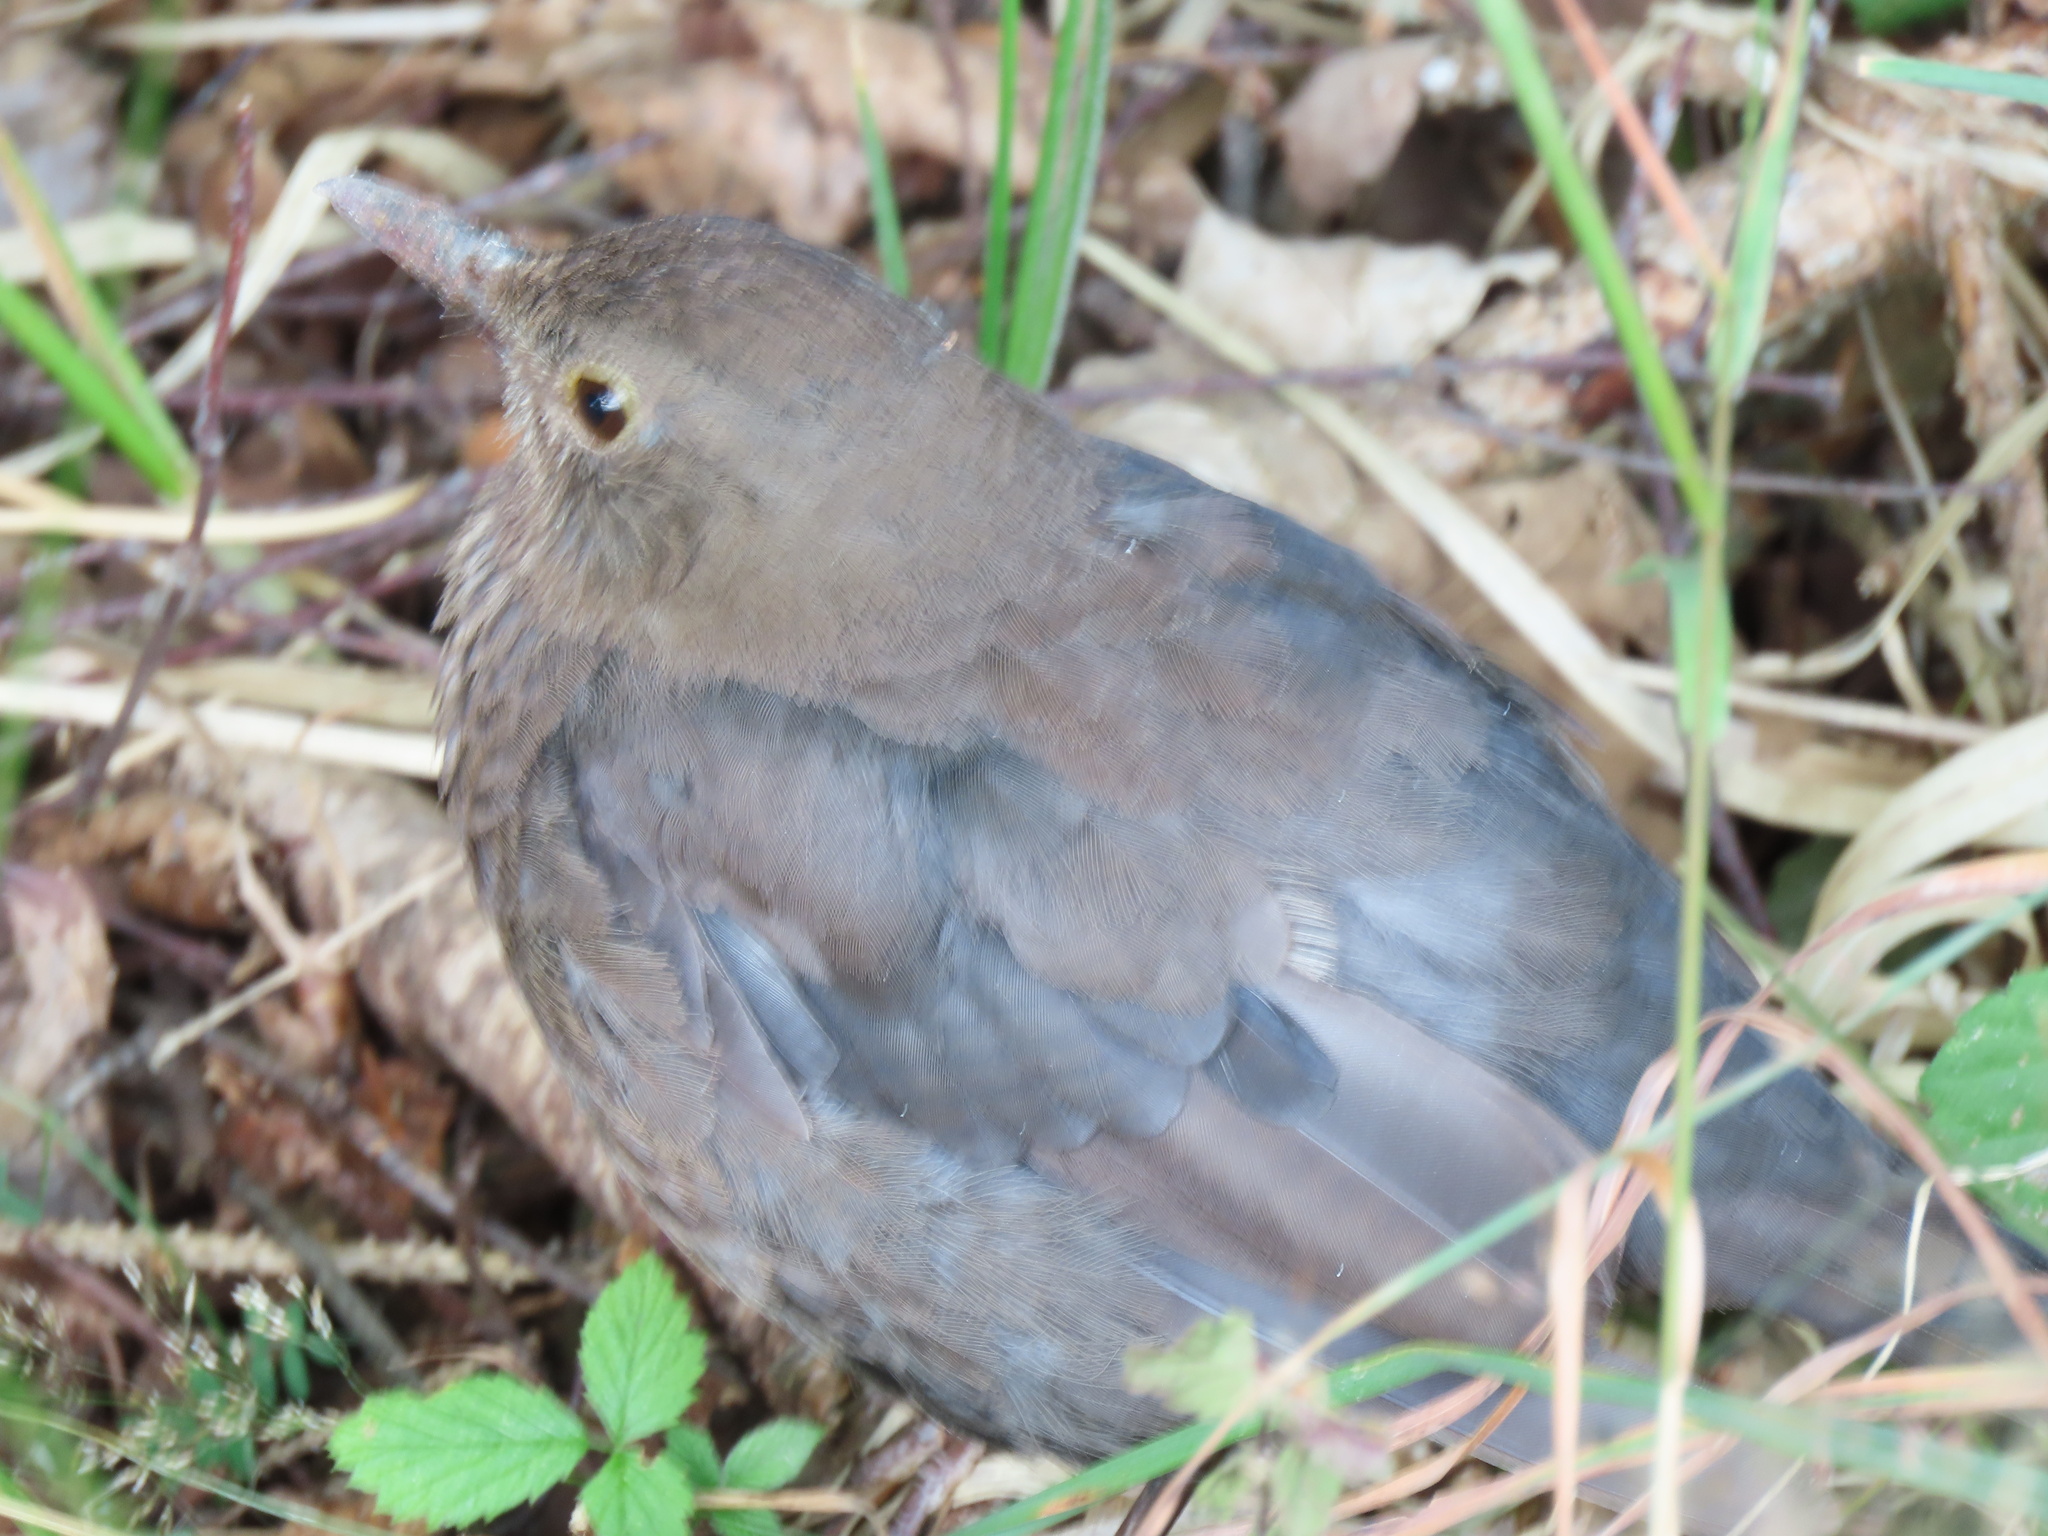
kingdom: Animalia
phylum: Chordata
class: Aves
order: Passeriformes
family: Turdidae
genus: Turdus
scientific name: Turdus merula
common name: Common blackbird
